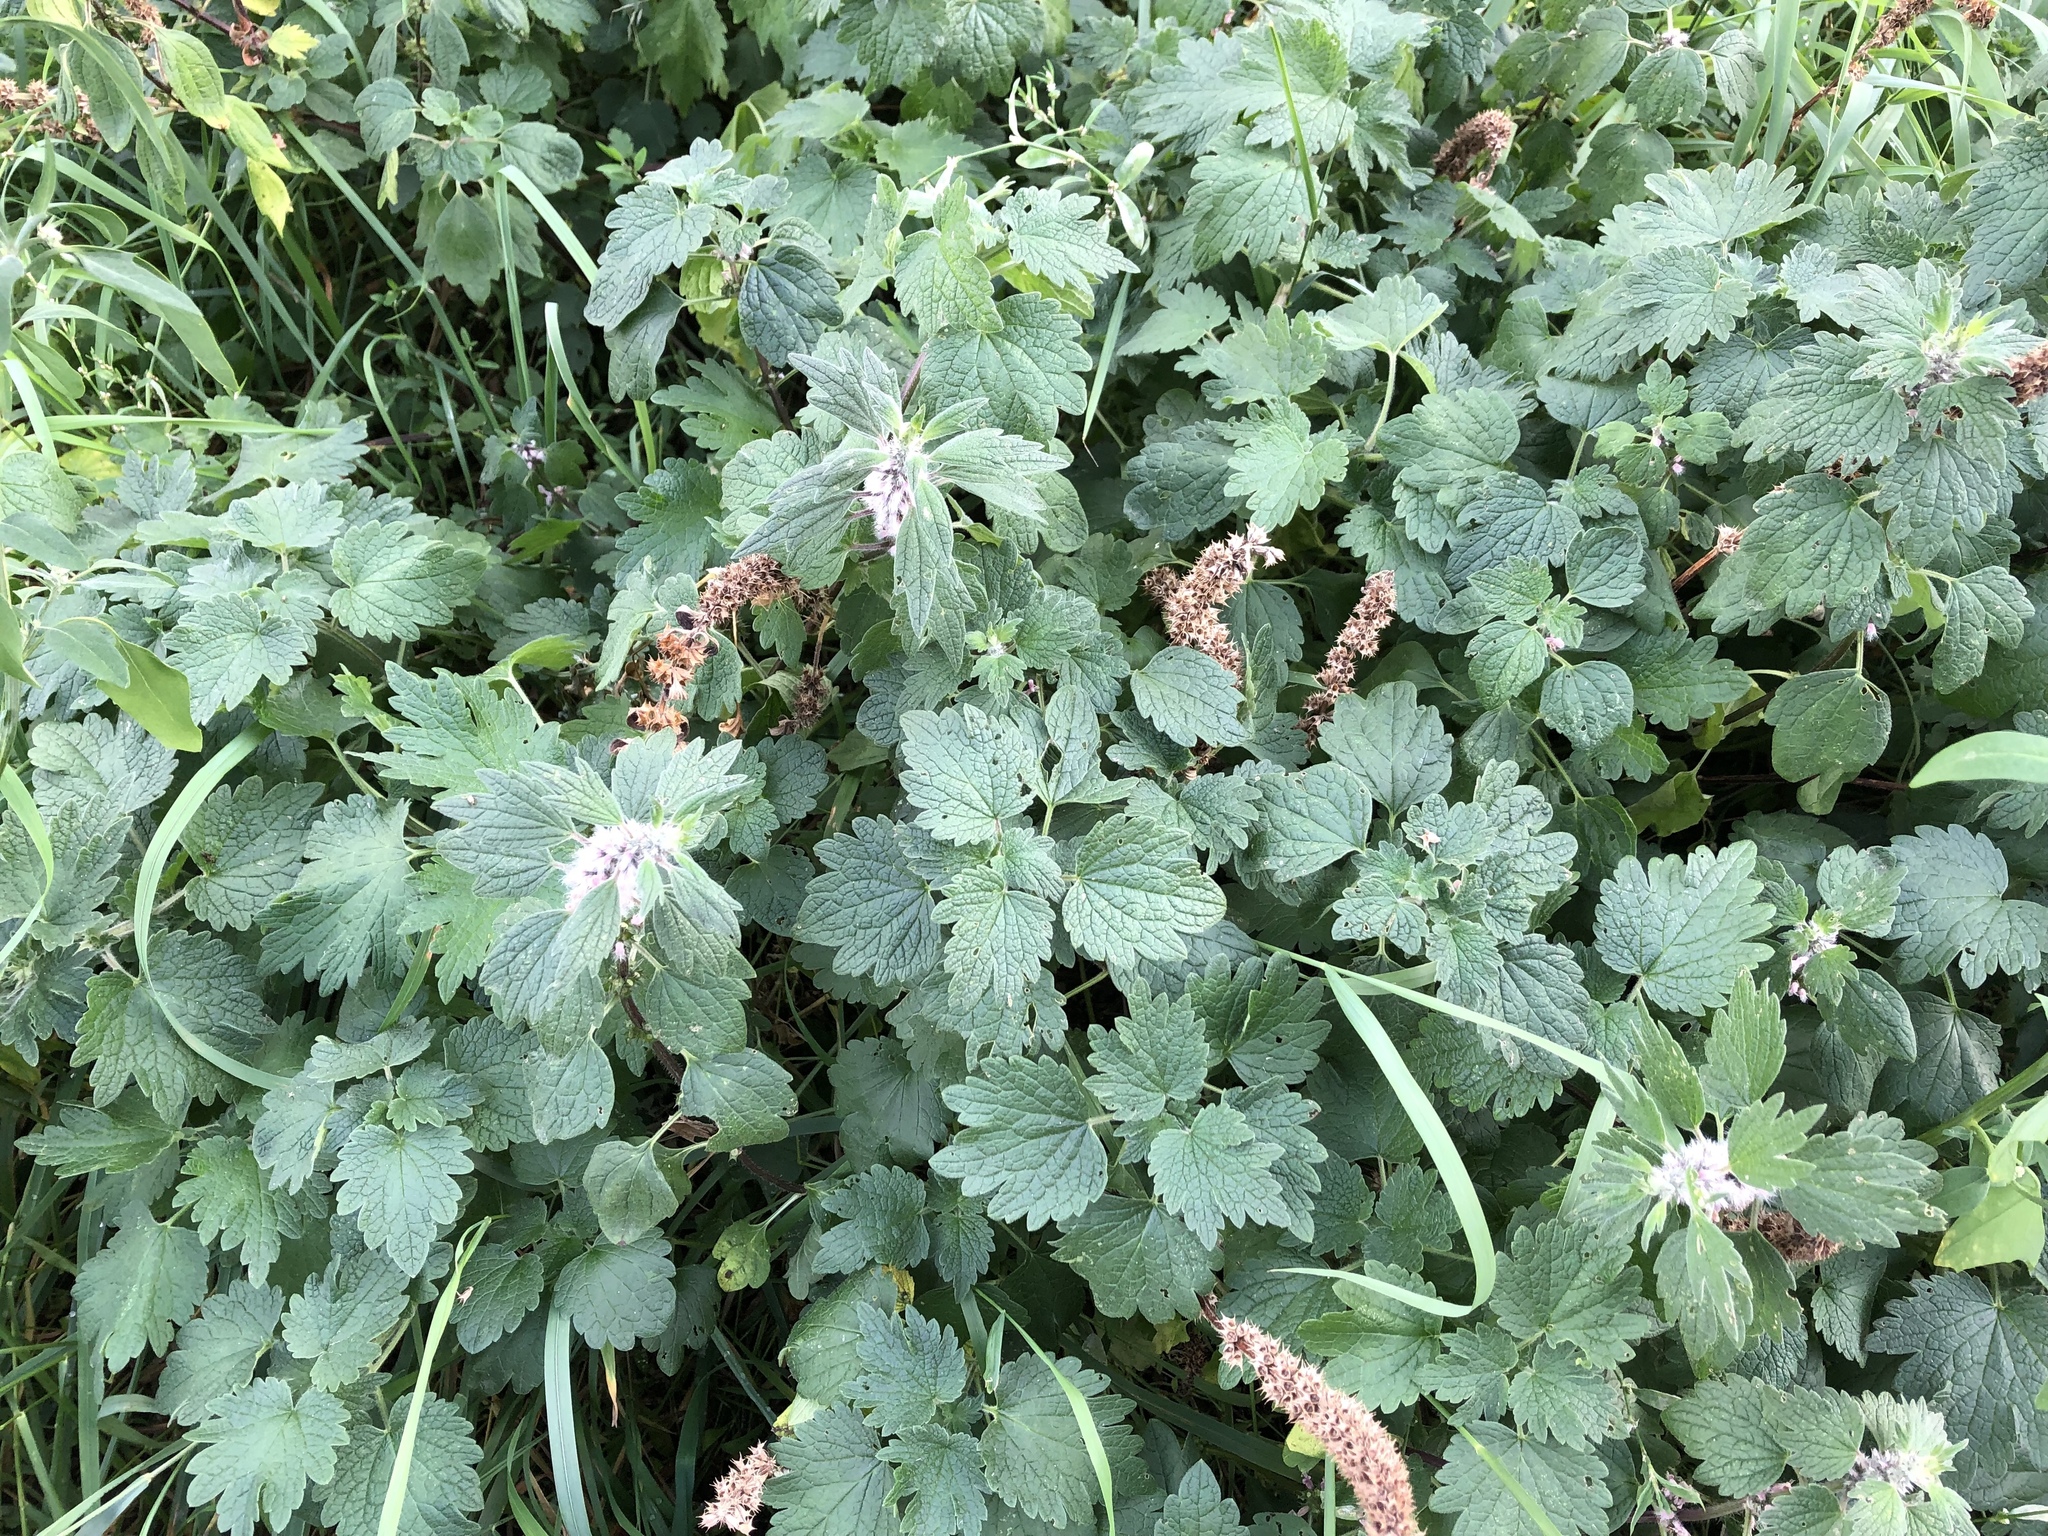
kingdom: Plantae
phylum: Tracheophyta
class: Magnoliopsida
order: Lamiales
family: Lamiaceae
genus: Leonurus
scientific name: Leonurus cardiaca
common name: Motherwort
